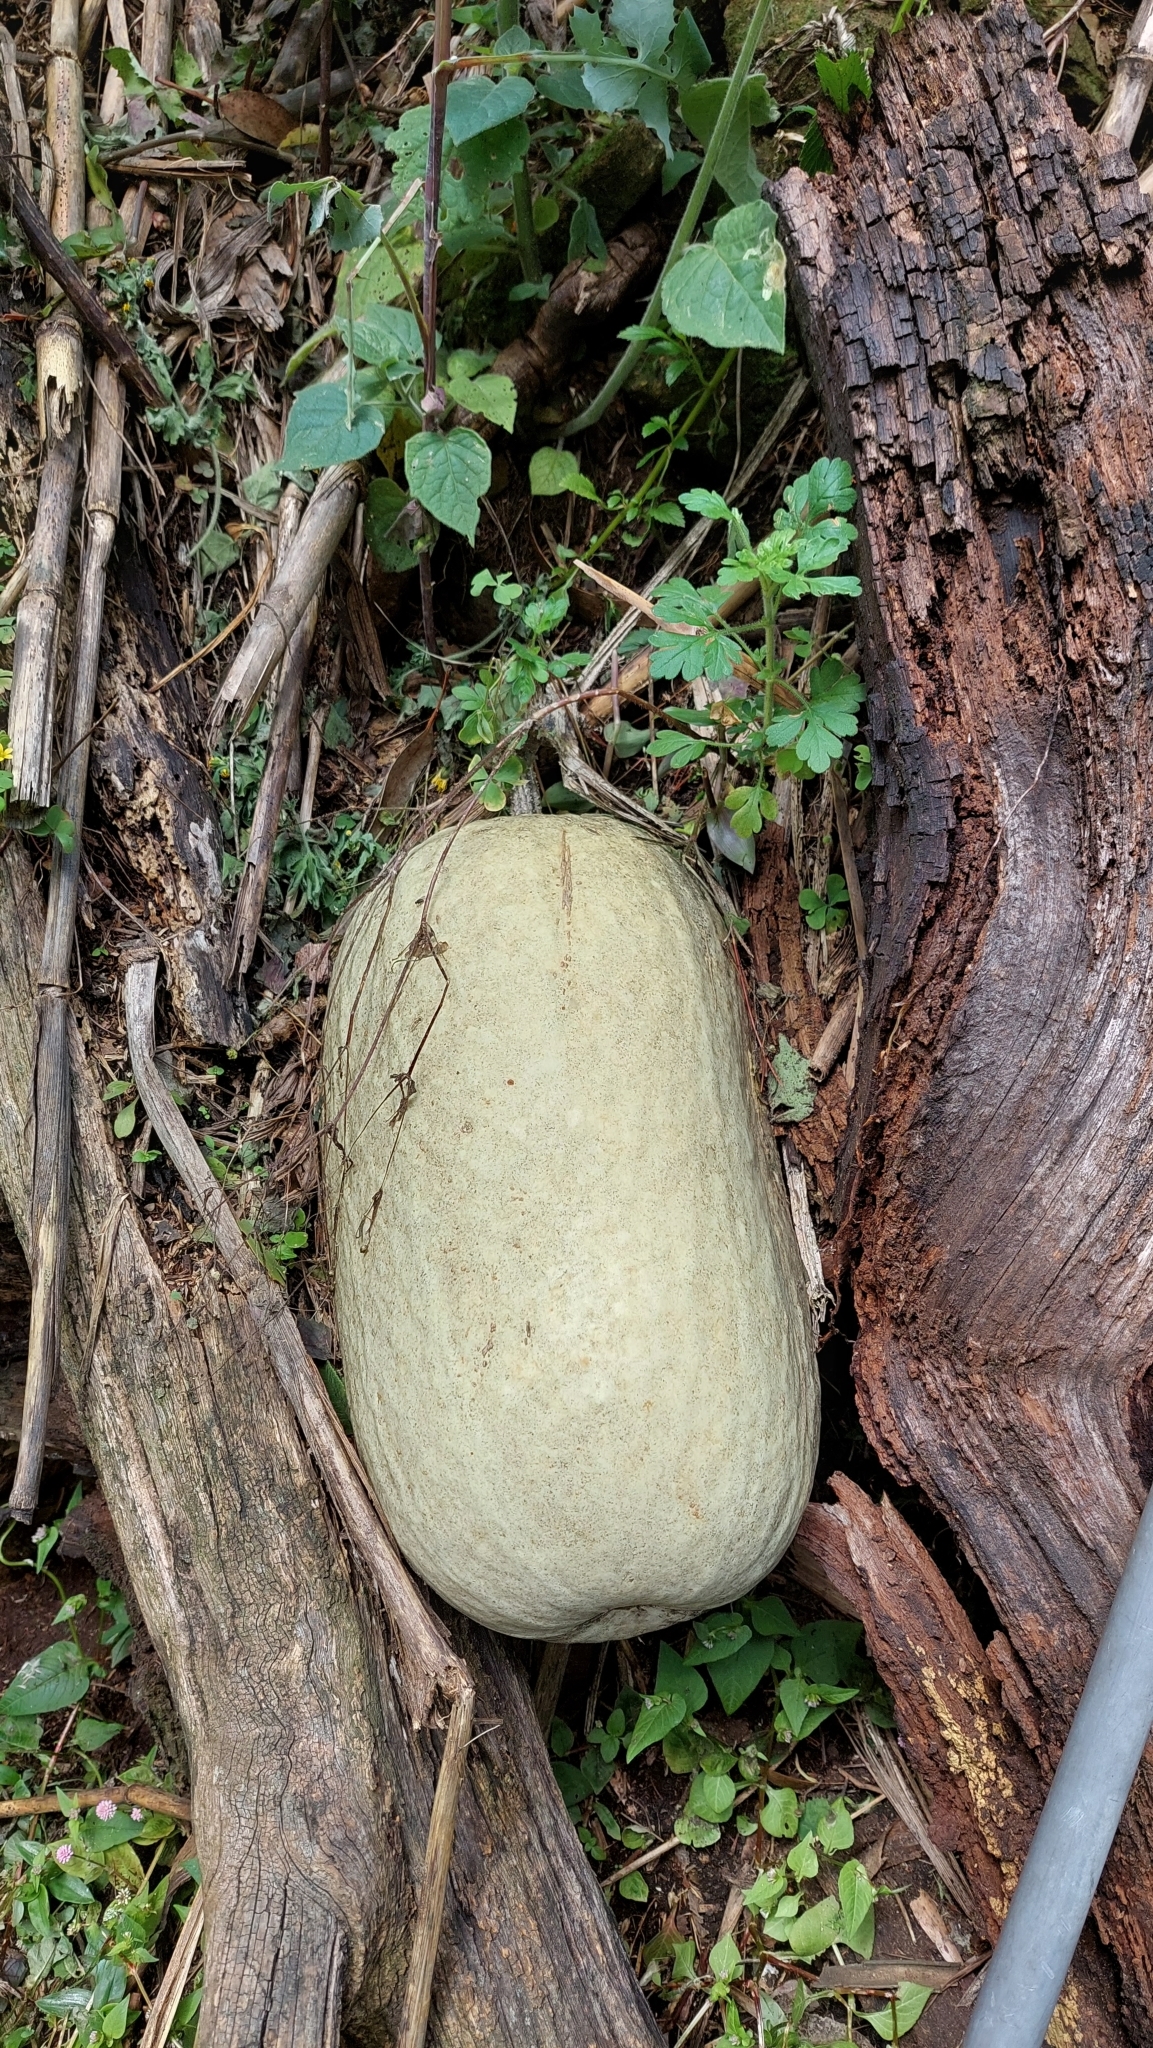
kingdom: Plantae
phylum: Tracheophyta
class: Magnoliopsida
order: Cucurbitales
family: Cucurbitaceae
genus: Cucurbita
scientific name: Cucurbita ficifolia
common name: Figleaf gourd
